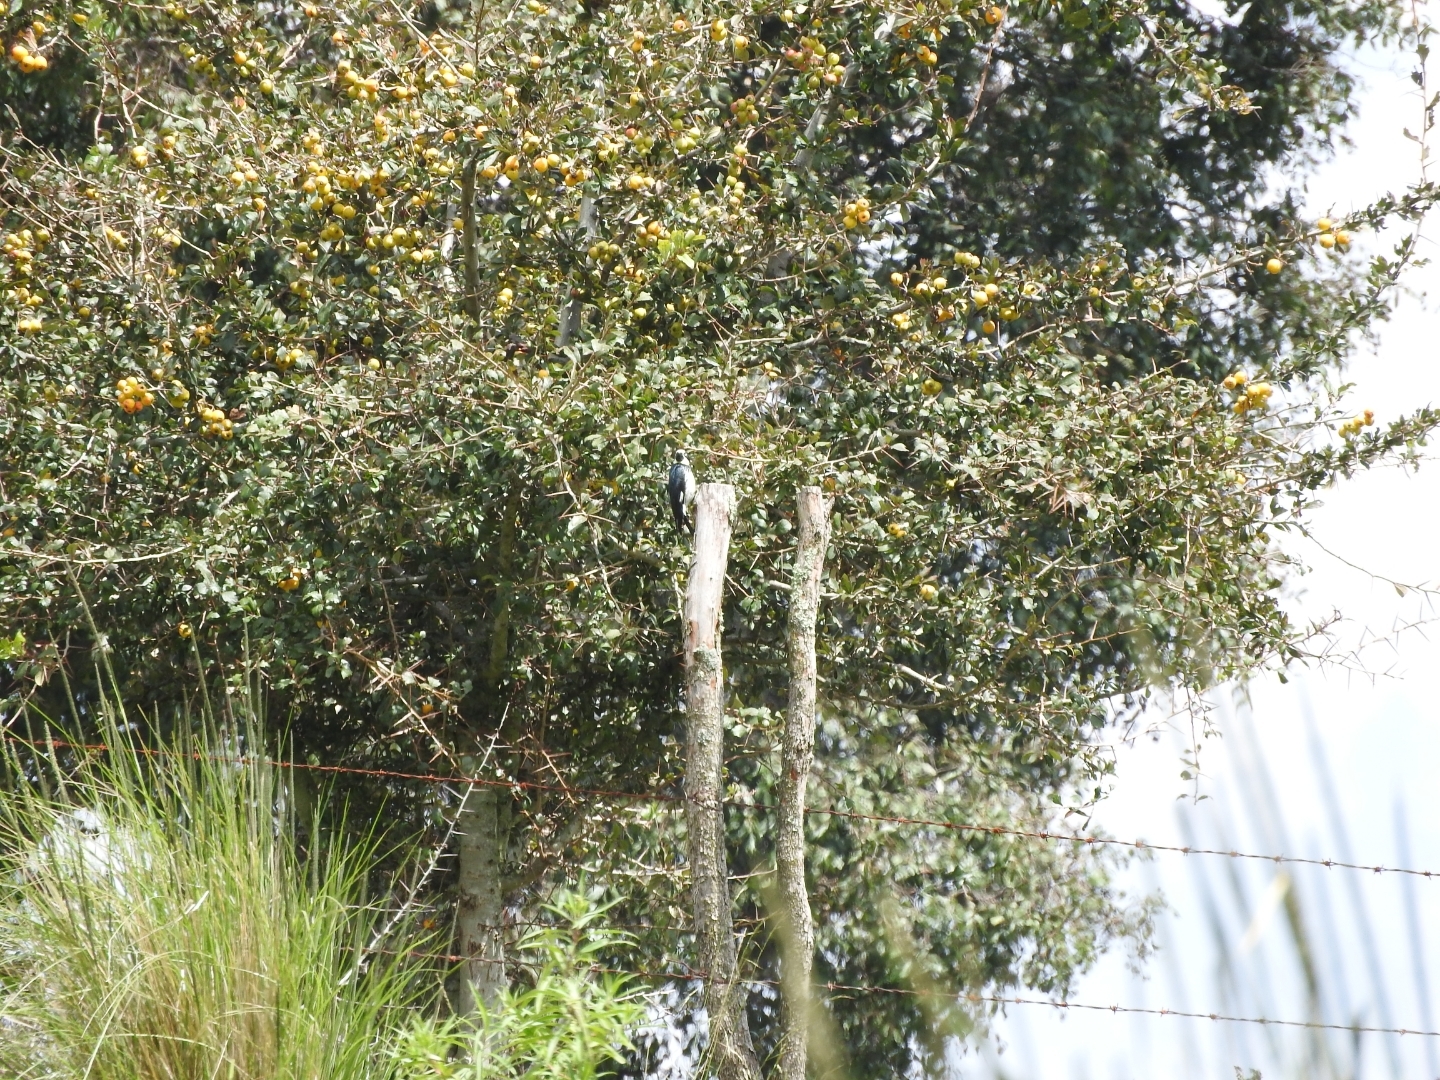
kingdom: Plantae
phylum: Tracheophyta
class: Magnoliopsida
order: Rosales
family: Rosaceae
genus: Crataegus
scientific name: Crataegus mexicana
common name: Mexican hawthorn
